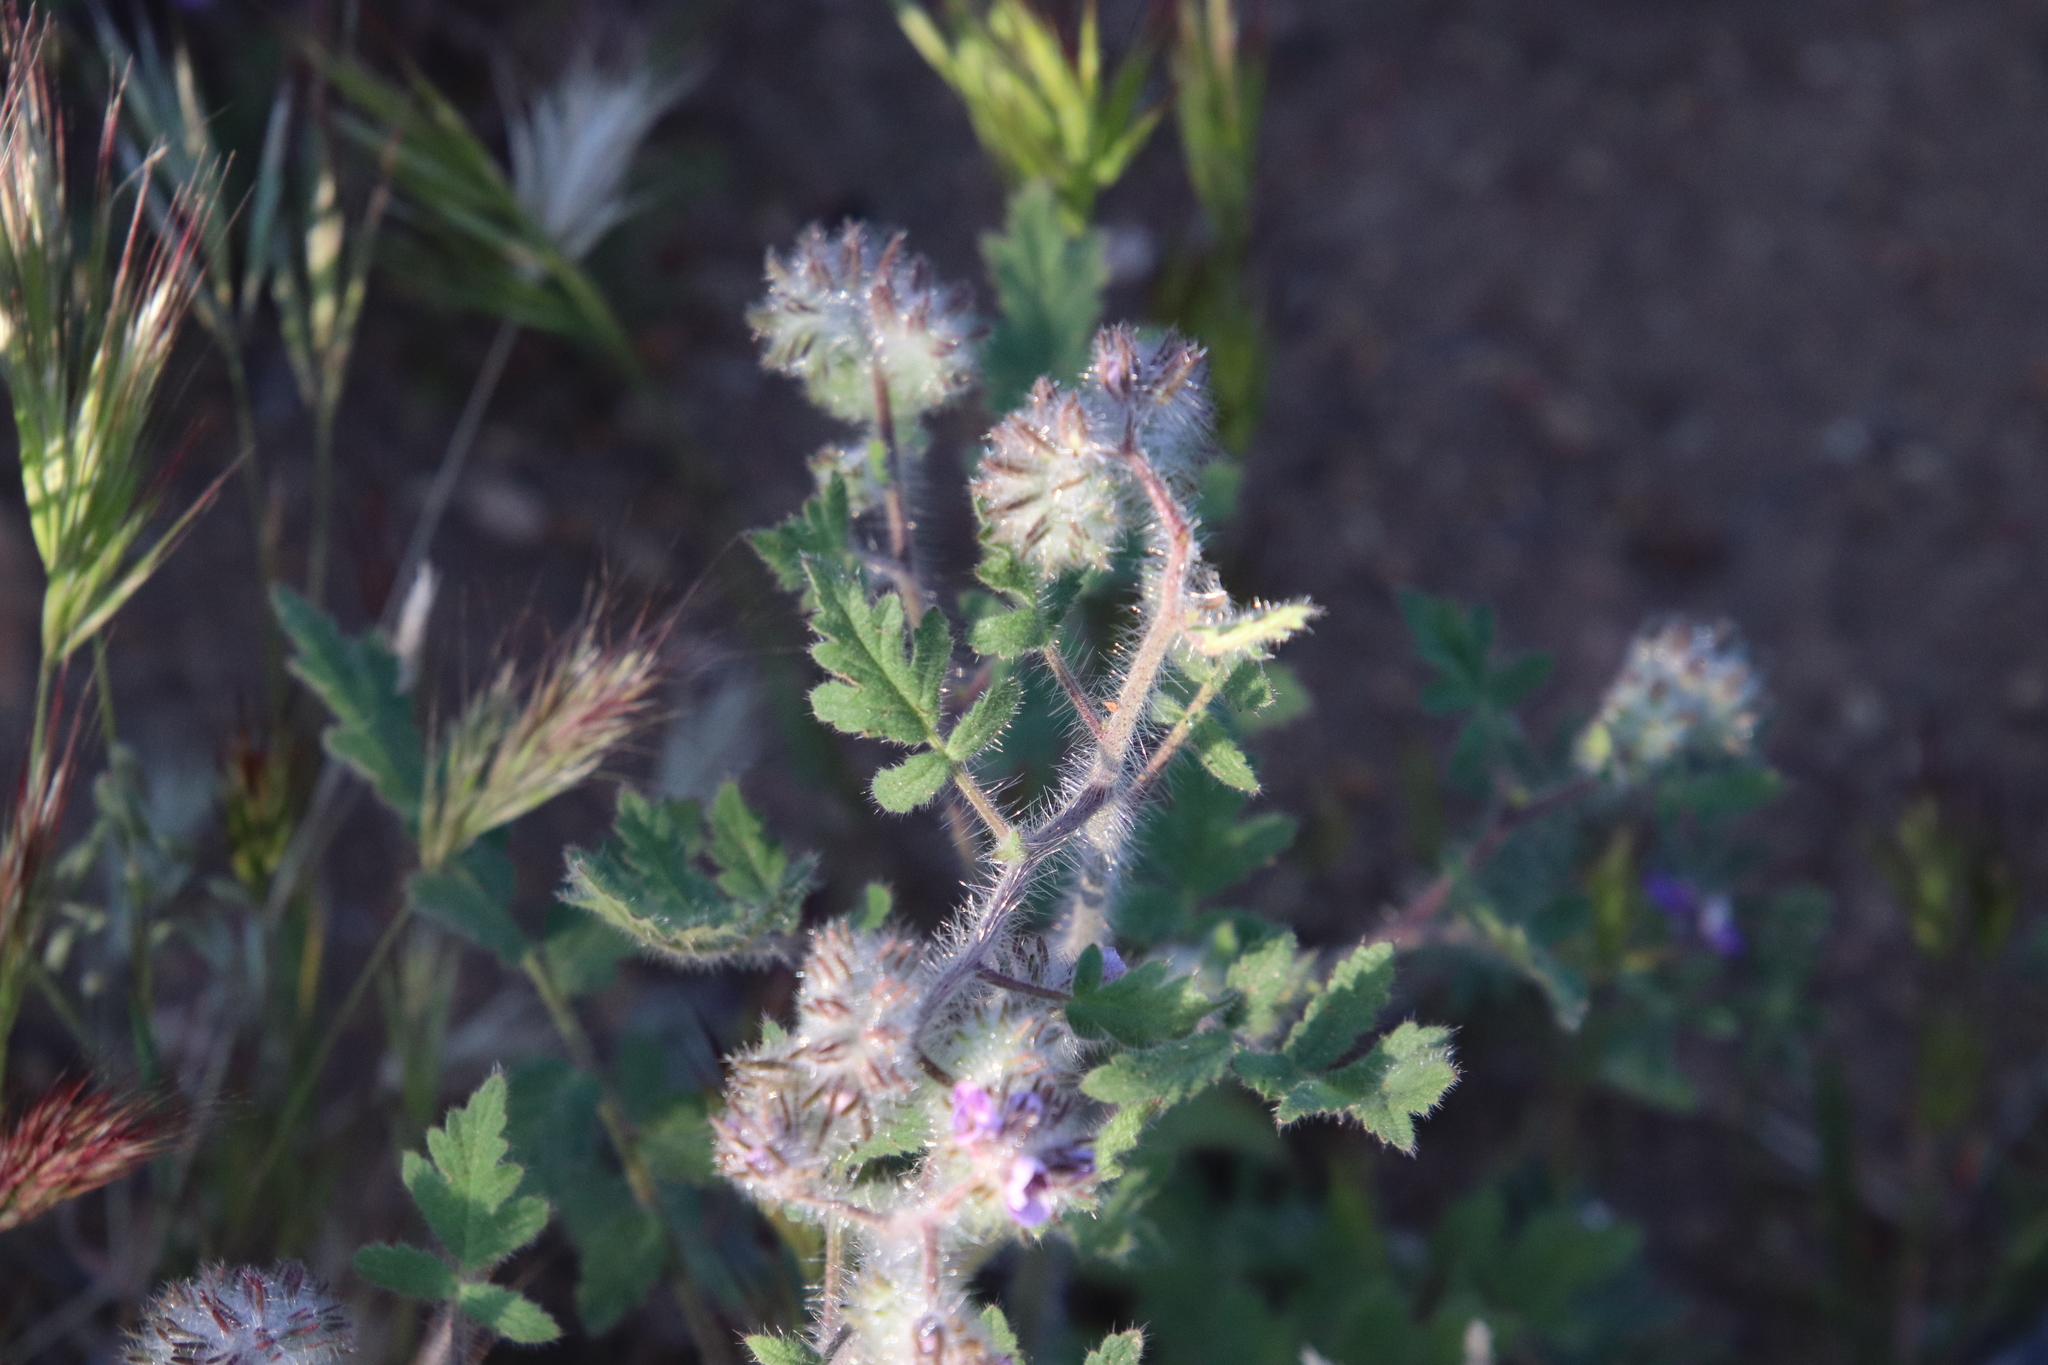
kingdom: Plantae
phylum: Tracheophyta
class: Magnoliopsida
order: Boraginales
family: Hydrophyllaceae
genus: Phacelia
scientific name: Phacelia cicutaria
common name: Caterpillar phacelia
